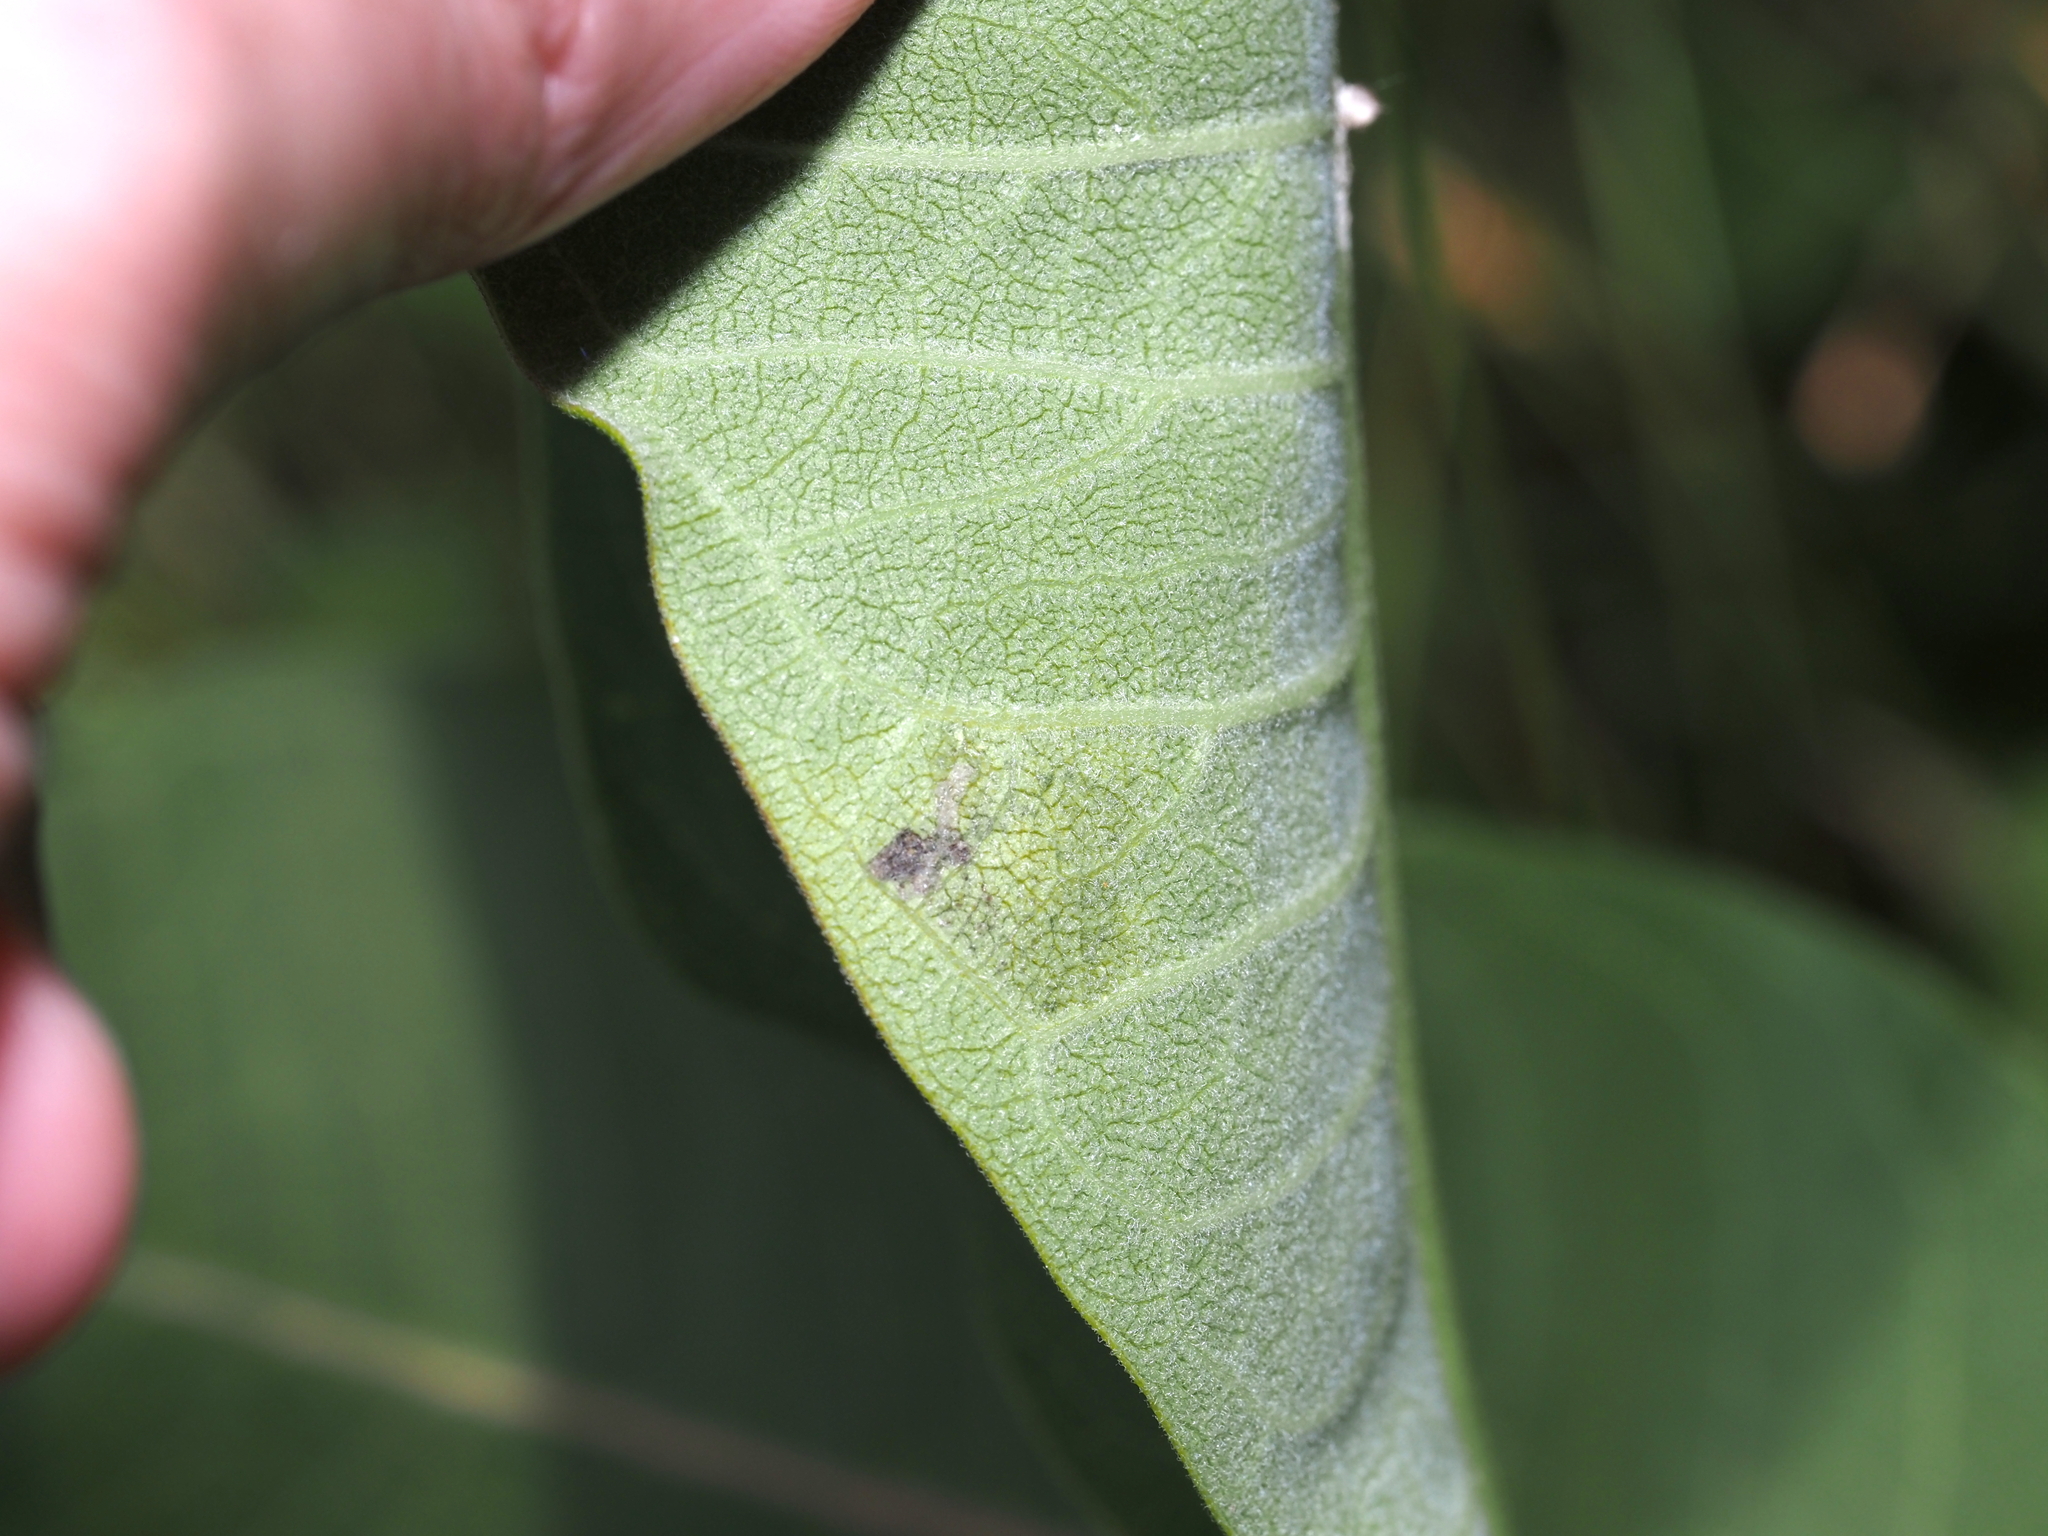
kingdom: Animalia
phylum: Arthropoda
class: Insecta
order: Diptera
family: Agromyzidae
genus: Liriomyza
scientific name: Liriomyza asclepiadis
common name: Milkweed leaf-miner fly
